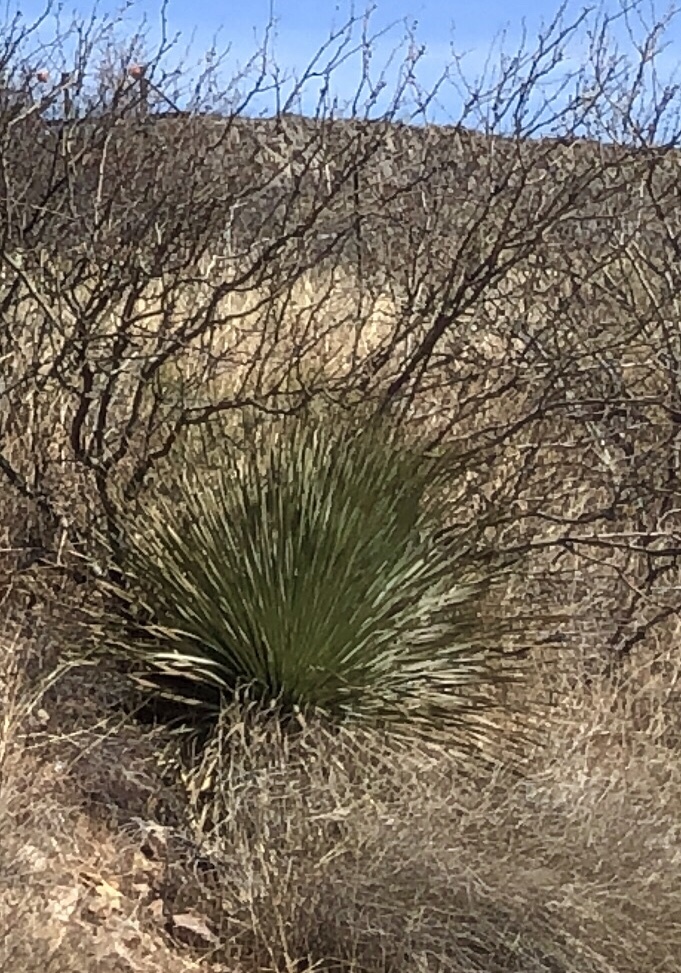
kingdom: Plantae
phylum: Tracheophyta
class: Liliopsida
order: Asparagales
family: Asparagaceae
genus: Dasylirion
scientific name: Dasylirion wheeleri
